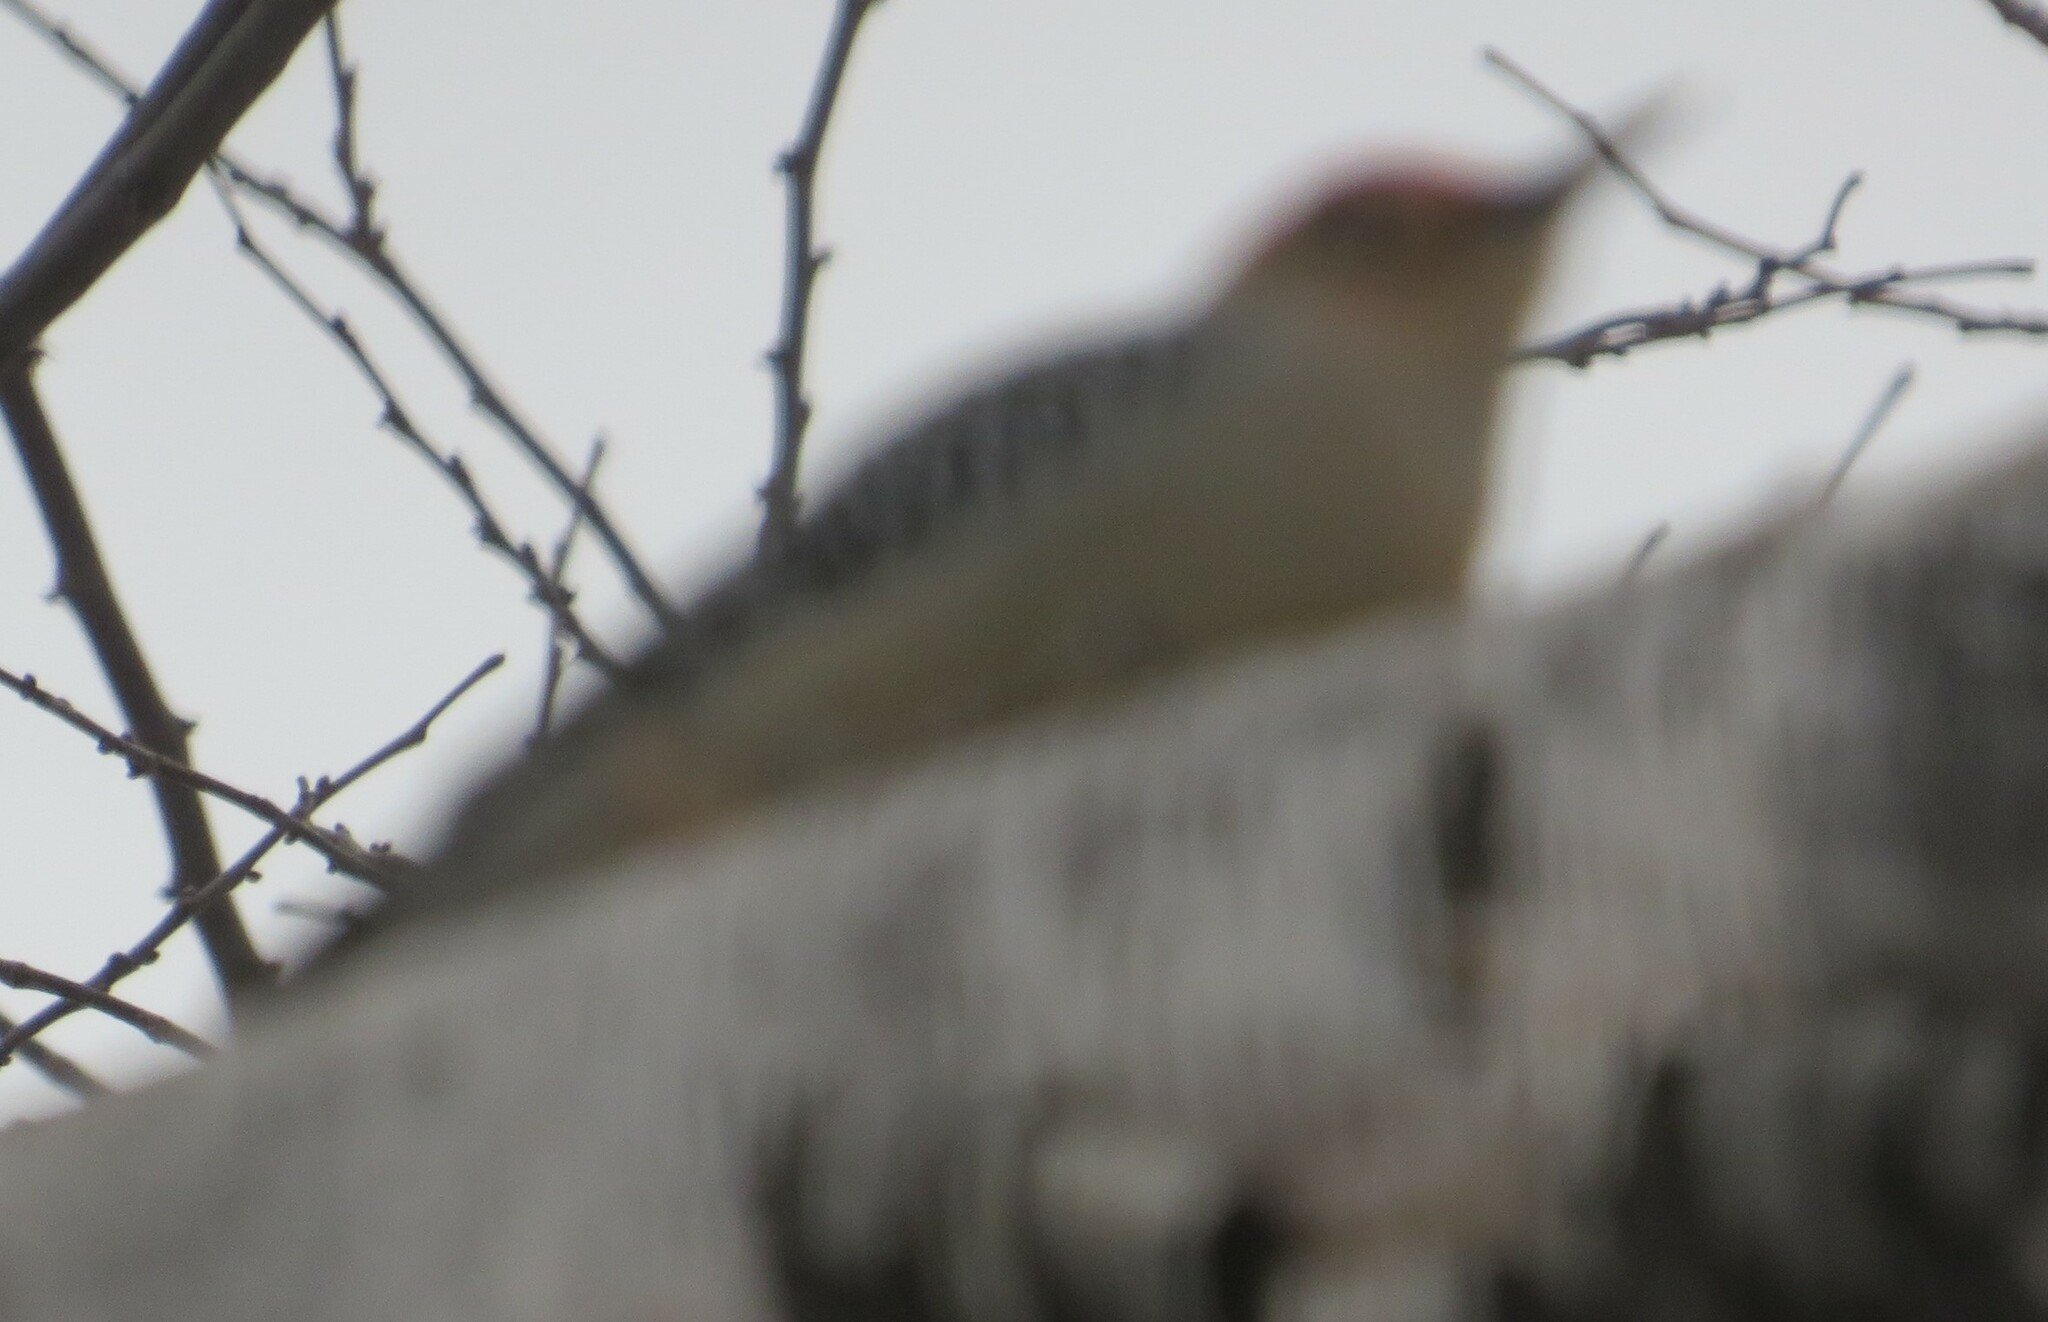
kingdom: Animalia
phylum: Chordata
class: Aves
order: Piciformes
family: Picidae
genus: Melanerpes
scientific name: Melanerpes carolinus
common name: Red-bellied woodpecker
